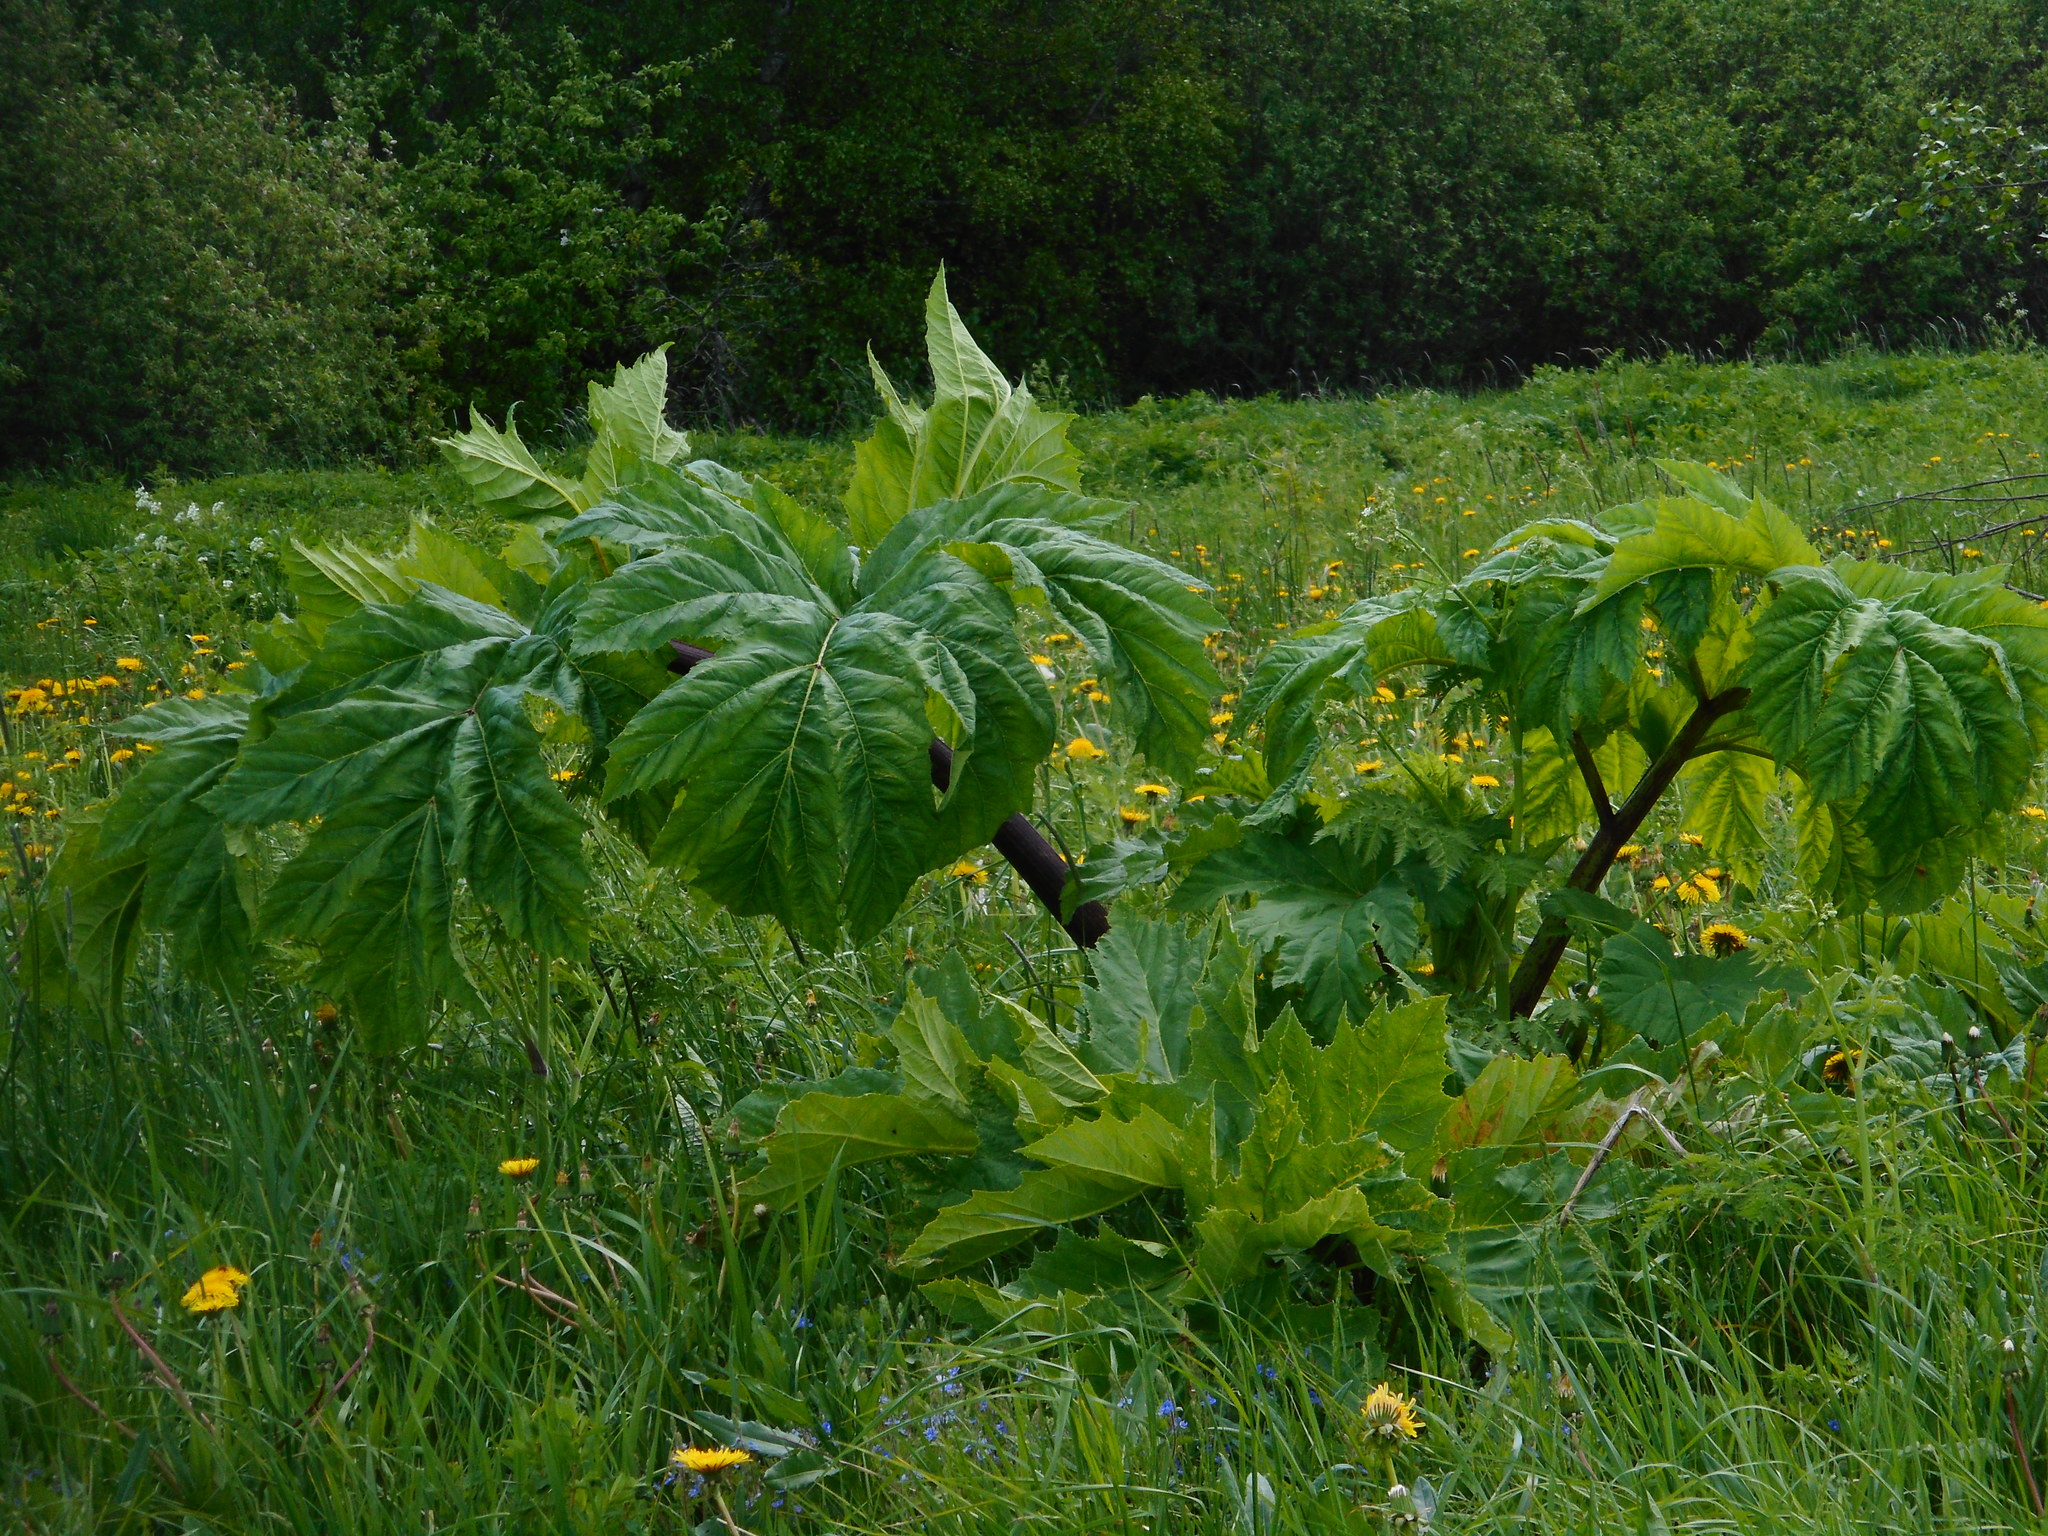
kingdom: Plantae
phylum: Tracheophyta
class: Magnoliopsida
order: Apiales
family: Apiaceae
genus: Heracleum
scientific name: Heracleum sosnowskyi
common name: Sosnowsky's hogweed
